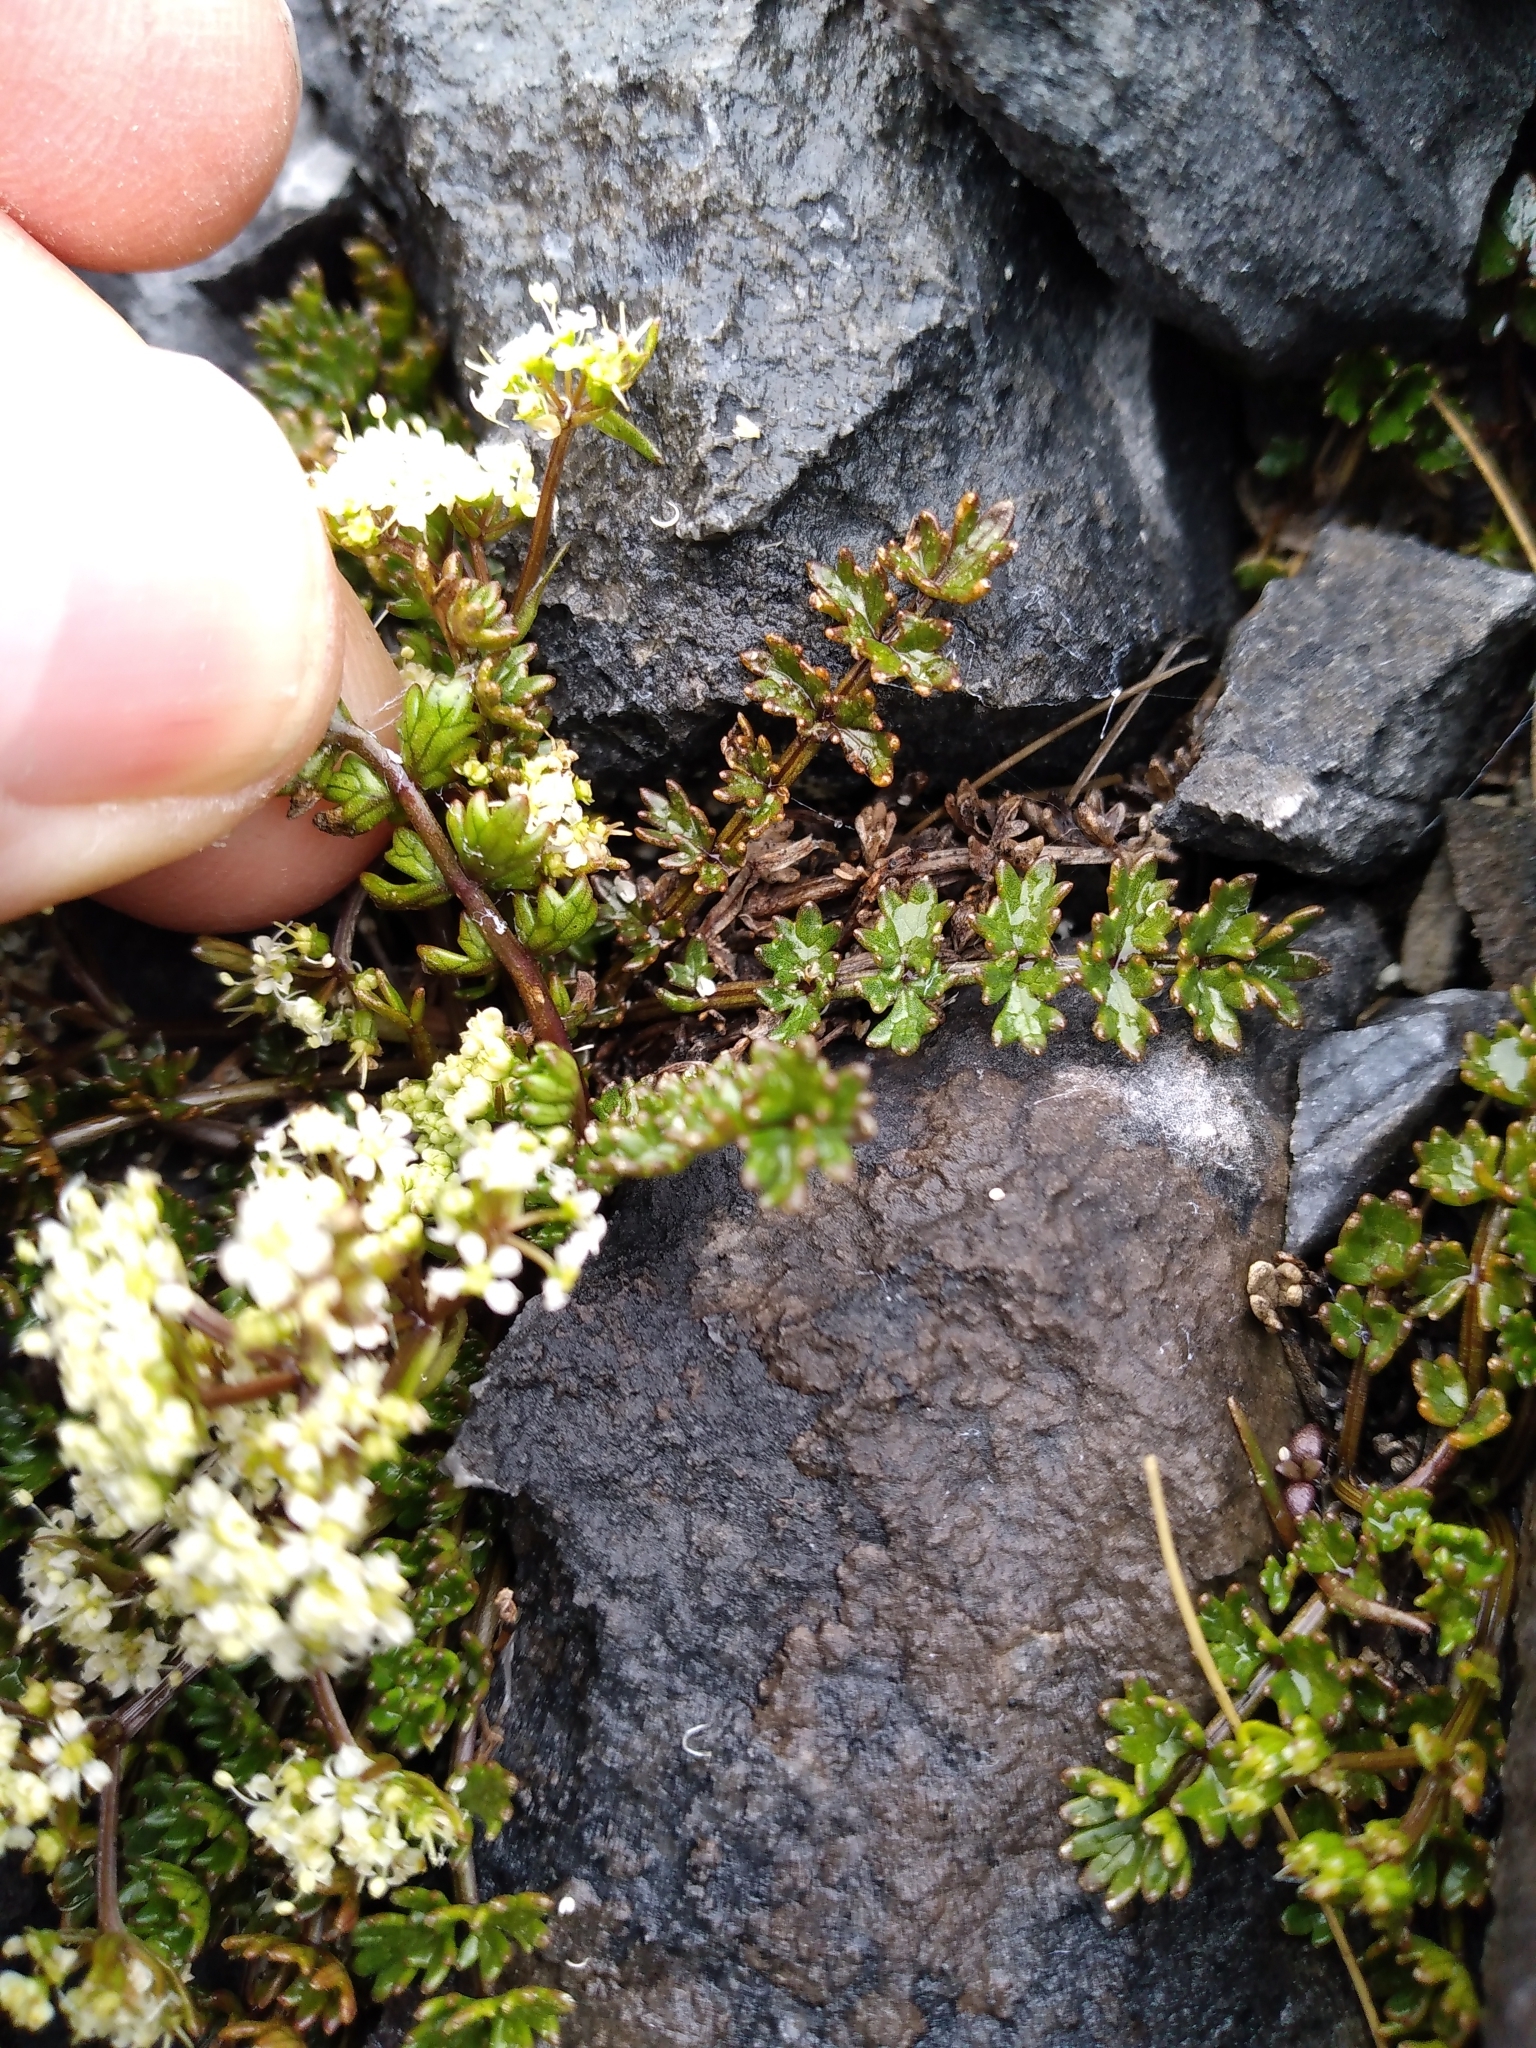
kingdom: Plantae
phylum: Tracheophyta
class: Magnoliopsida
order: Apiales
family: Apiaceae
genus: Gingidia
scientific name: Gingidia decipiens
